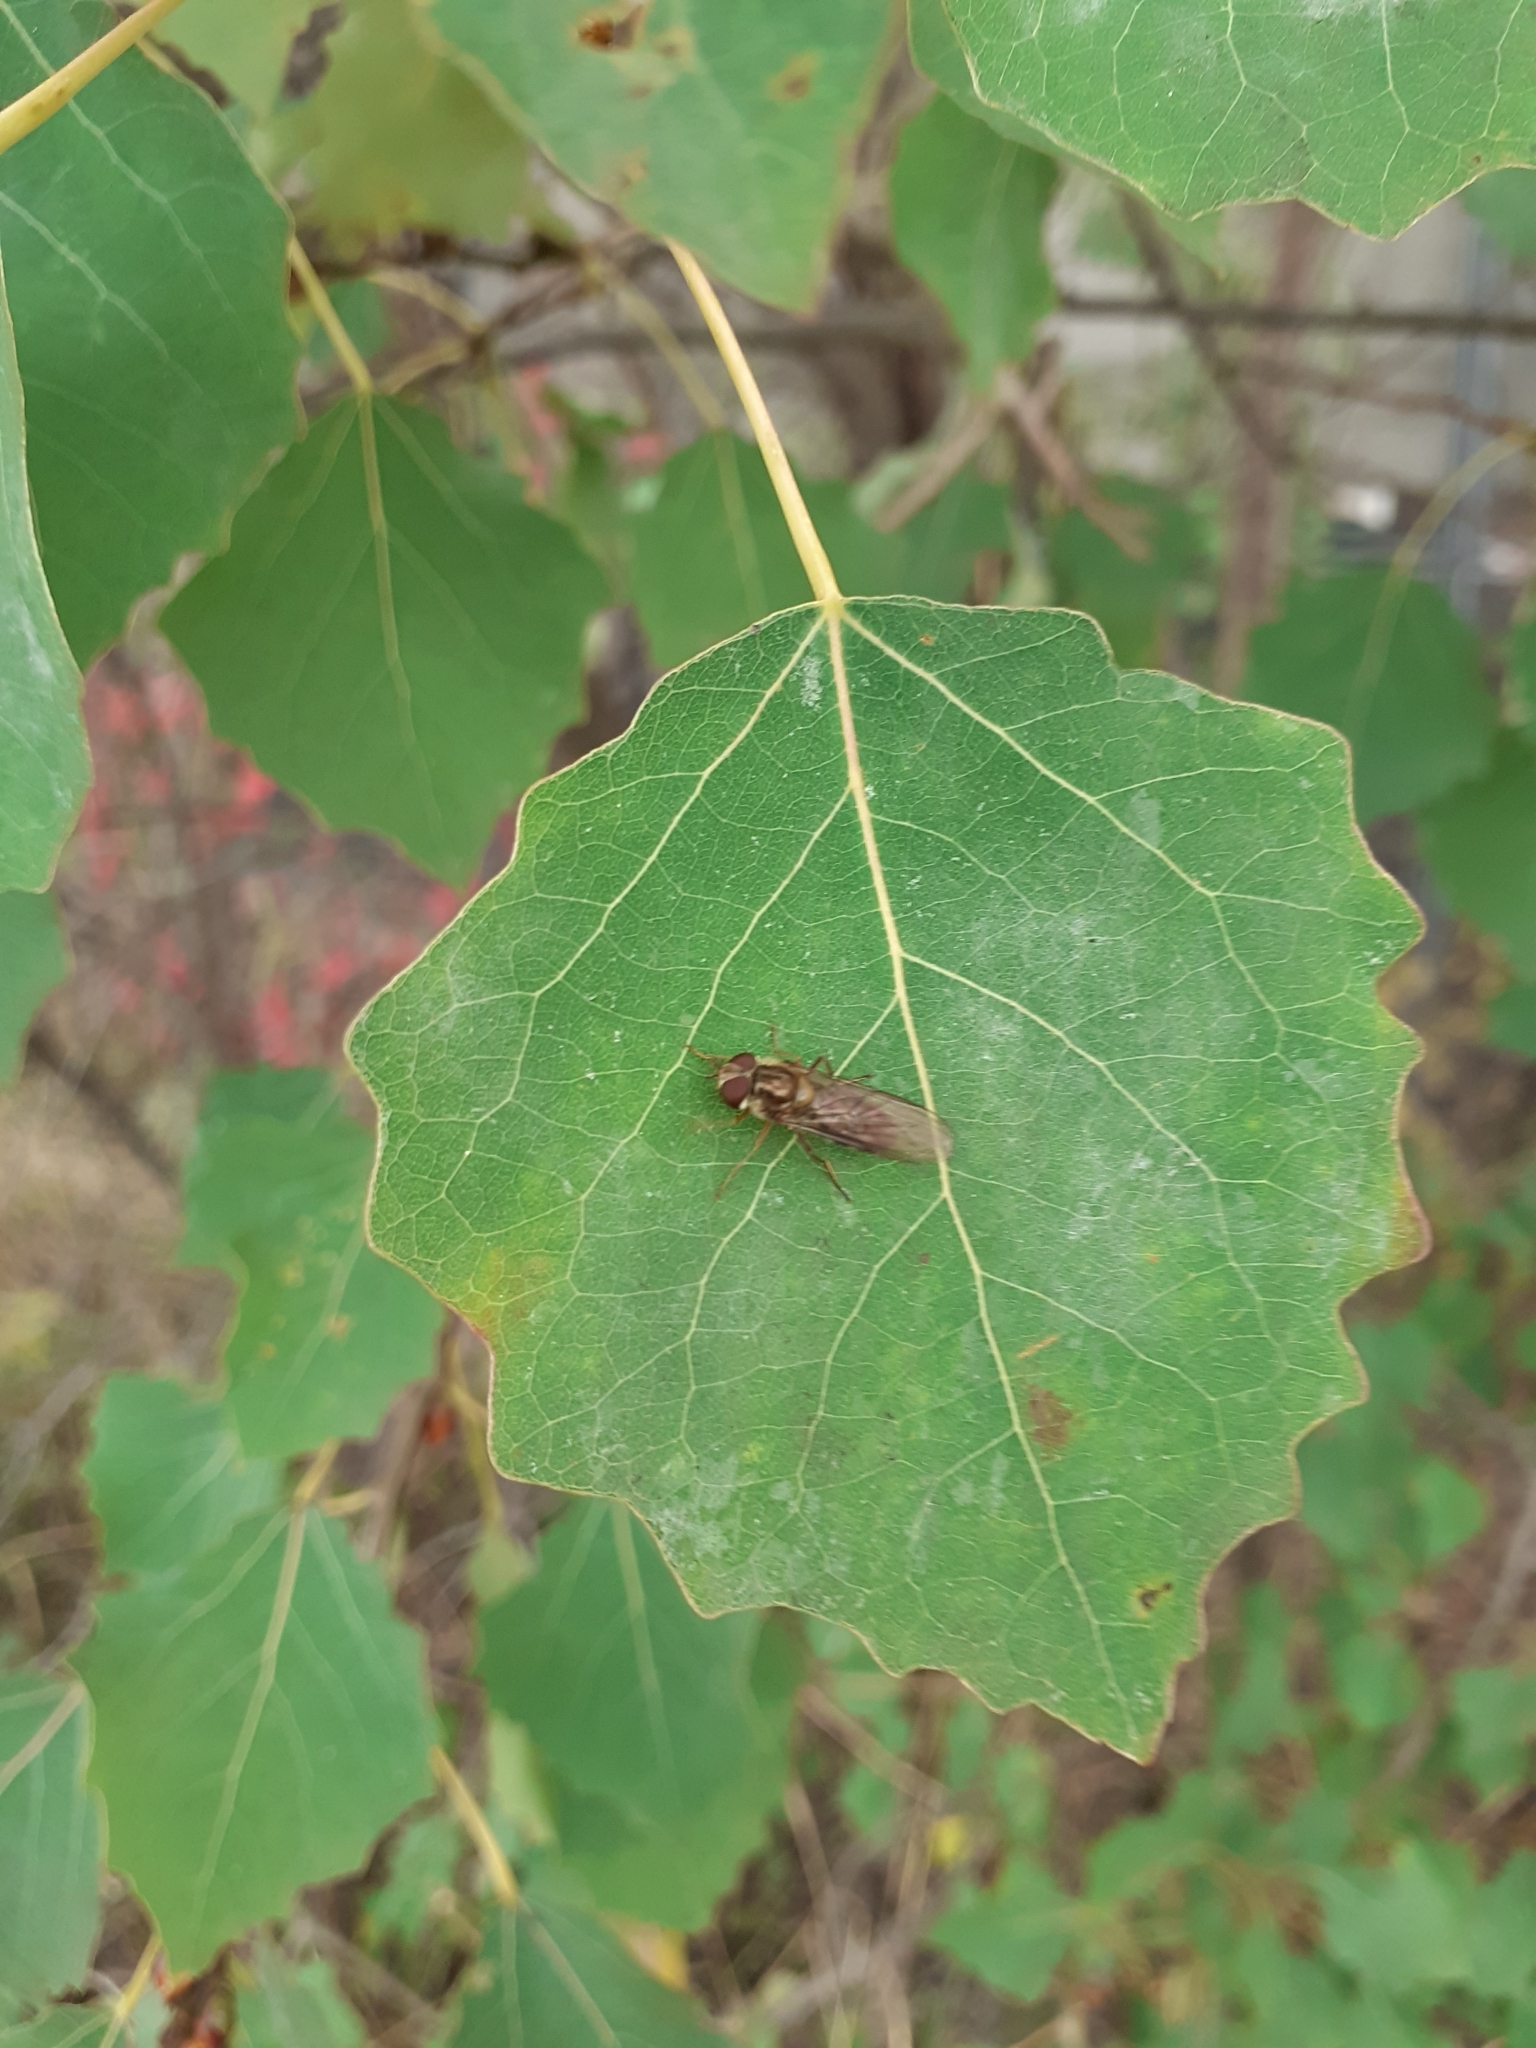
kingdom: Animalia
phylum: Arthropoda
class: Insecta
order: Diptera
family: Syrphidae
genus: Episyrphus
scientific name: Episyrphus balteatus
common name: Marmalade hoverfly
